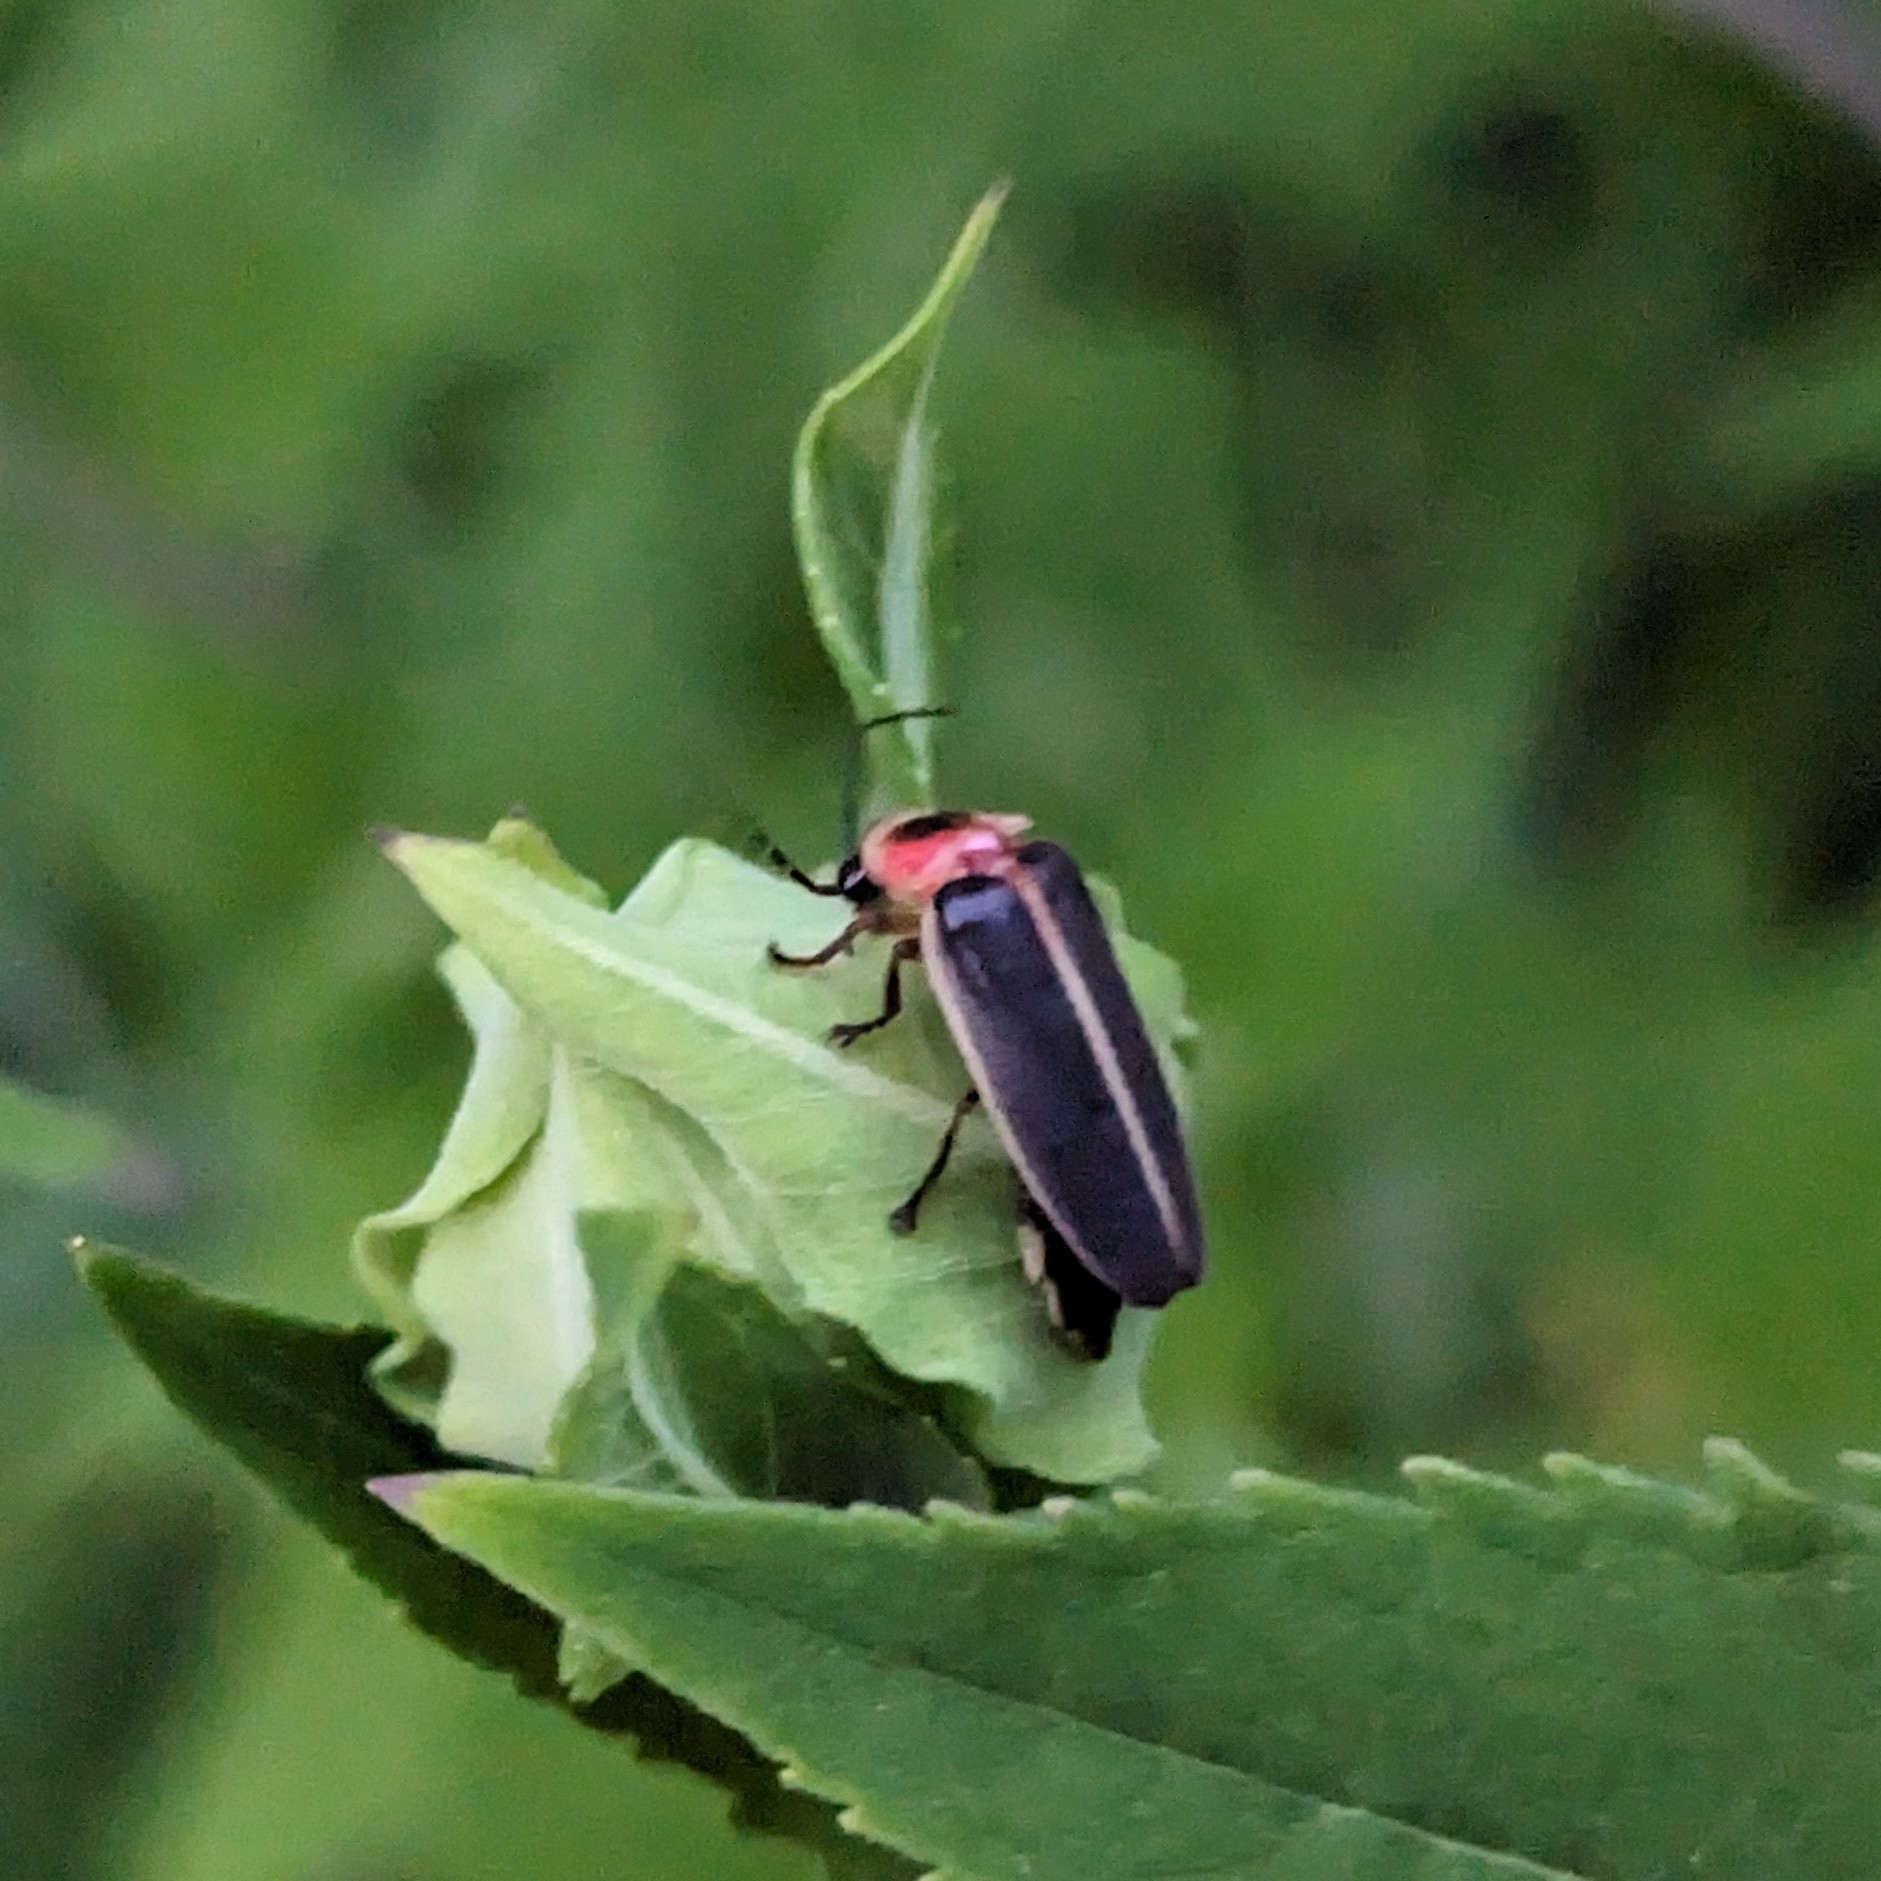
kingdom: Animalia
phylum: Arthropoda
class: Insecta
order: Coleoptera
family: Lampyridae
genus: Photinus
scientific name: Photinus pyralis
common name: Big dipper firefly
